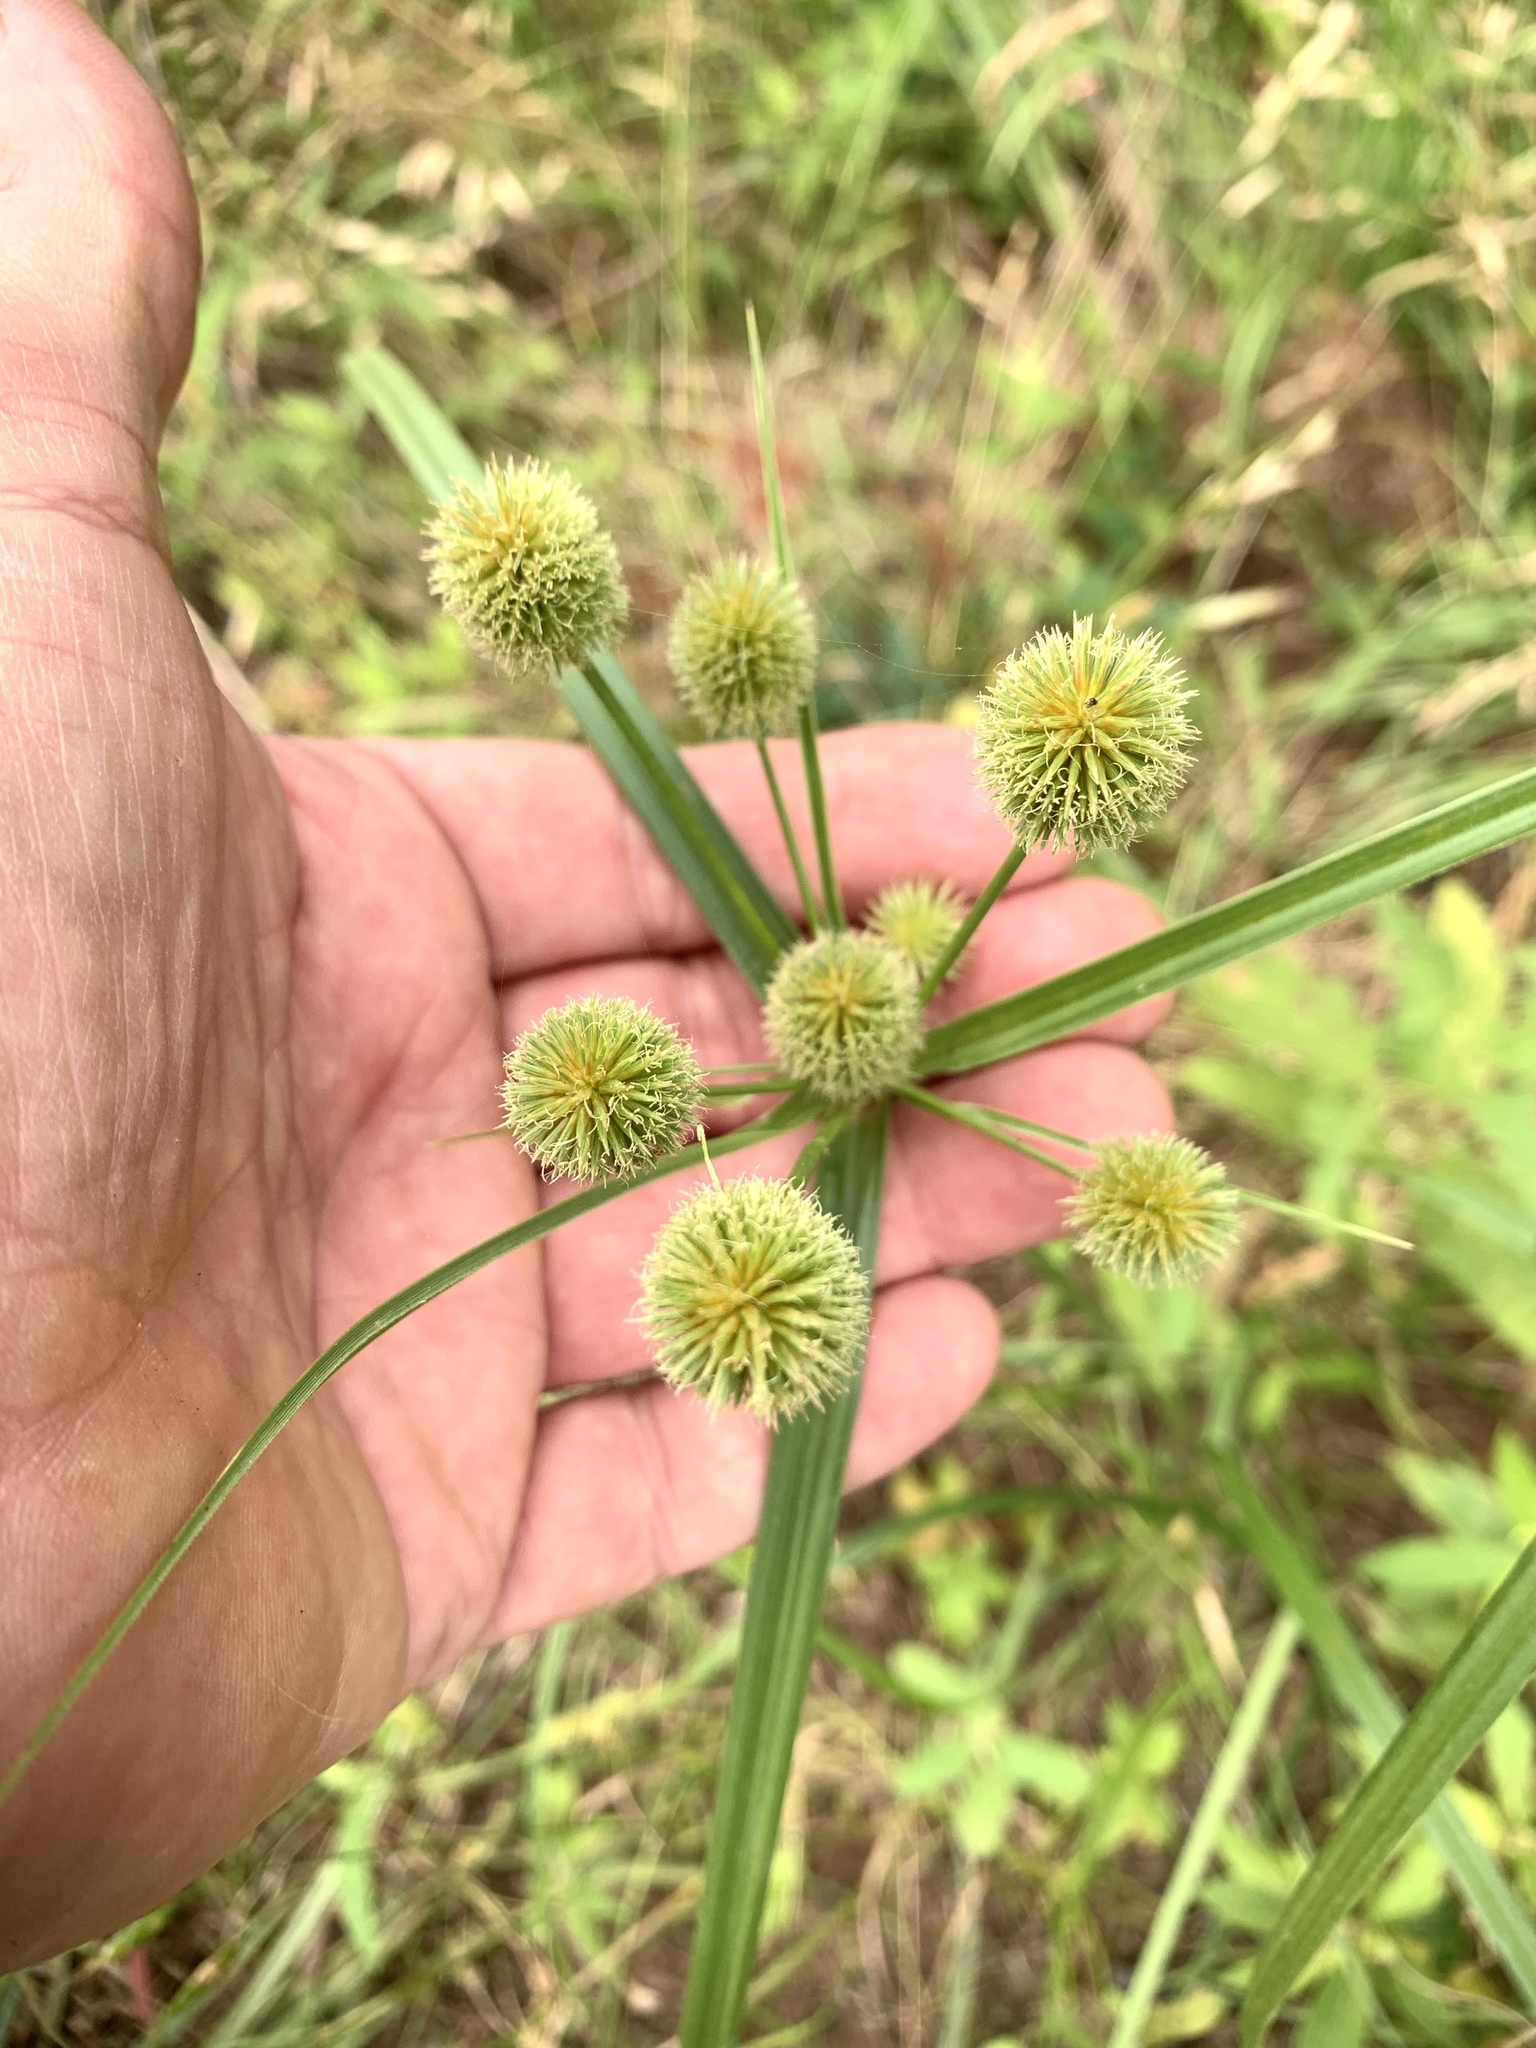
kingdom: Plantae
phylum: Tracheophyta
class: Liliopsida
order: Poales
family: Cyperaceae
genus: Cyperus
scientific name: Cyperus echinatus
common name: Teasel sedge
